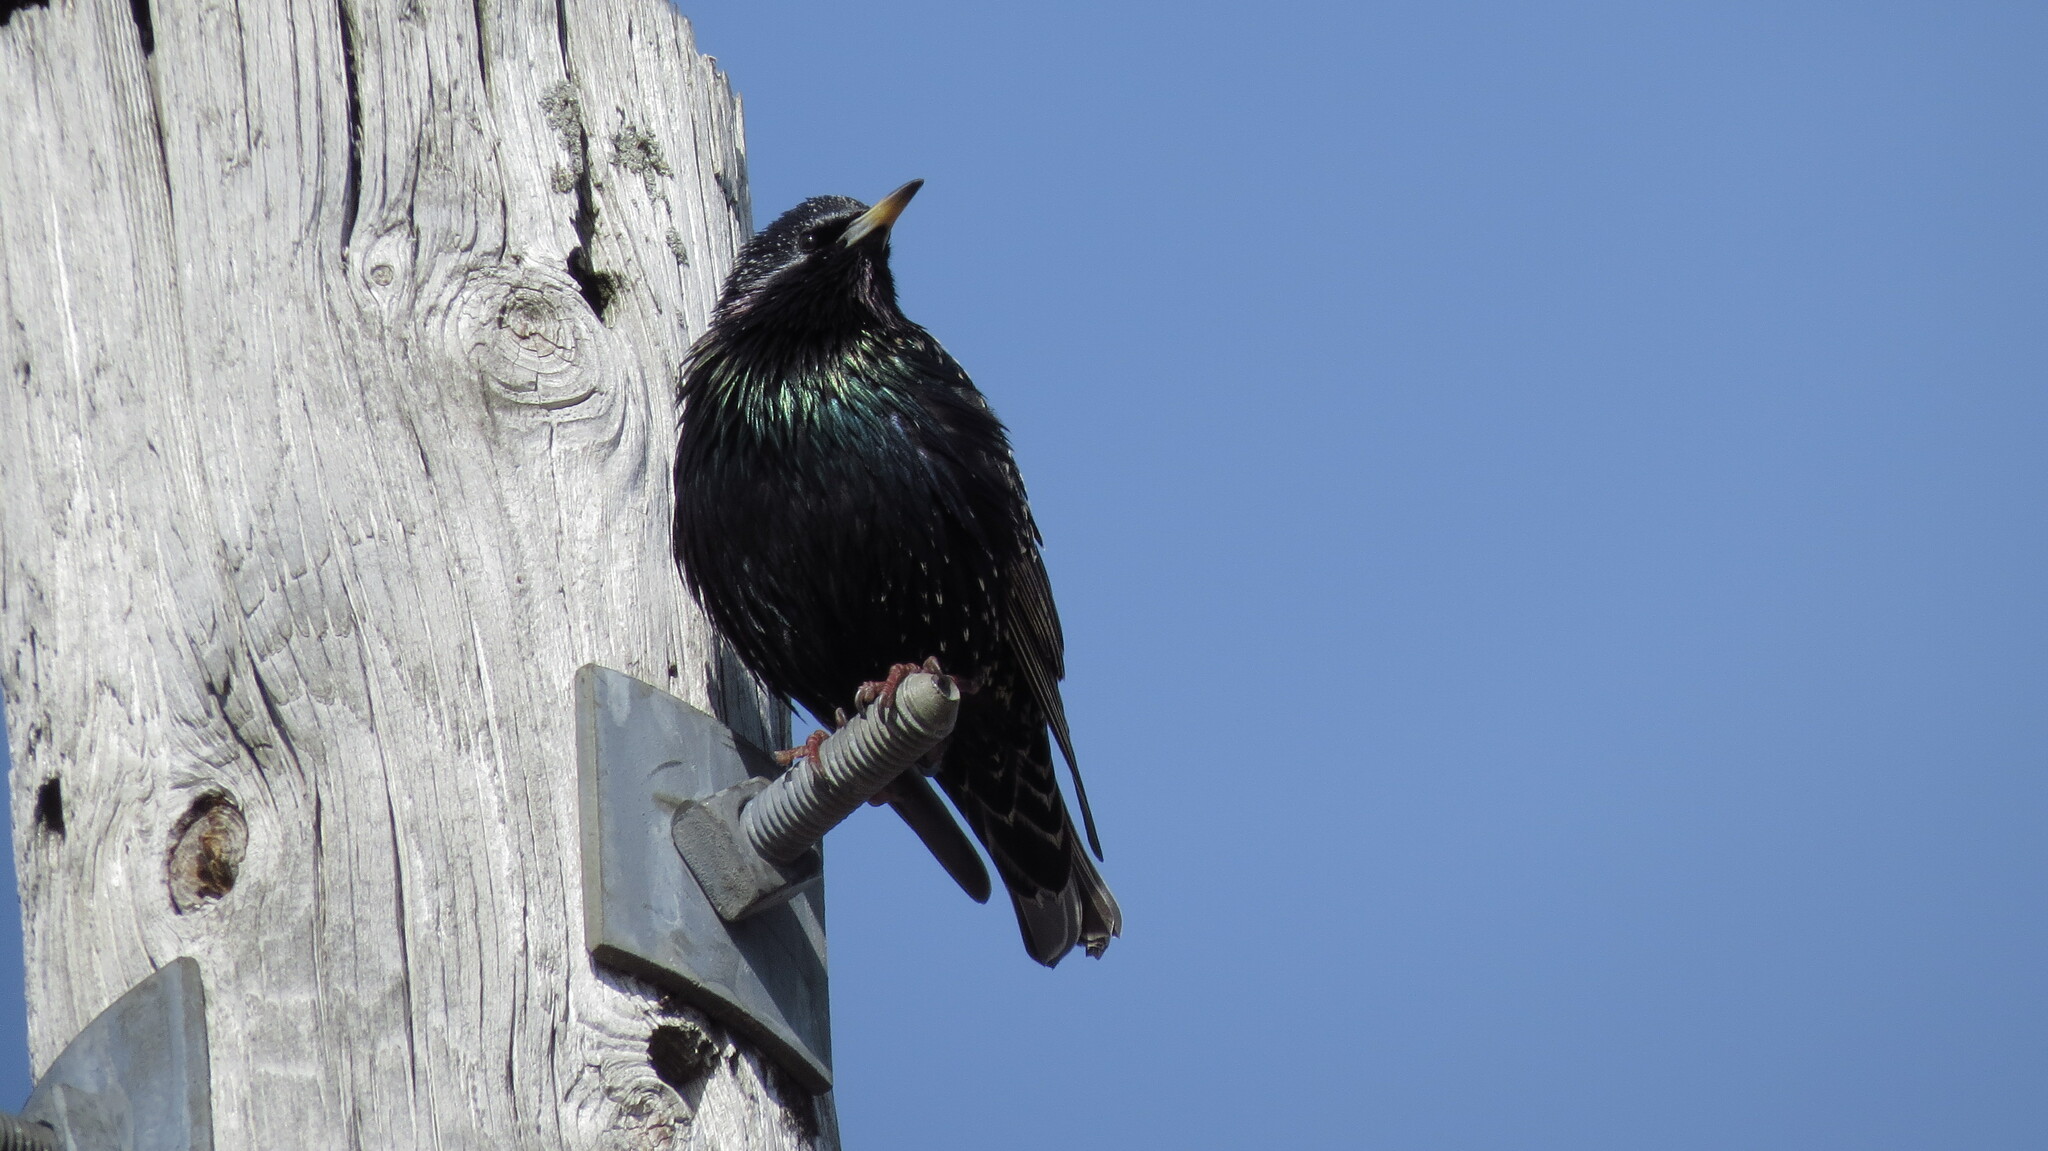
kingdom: Animalia
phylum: Chordata
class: Aves
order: Passeriformes
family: Sturnidae
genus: Sturnus
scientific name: Sturnus vulgaris
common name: Common starling
